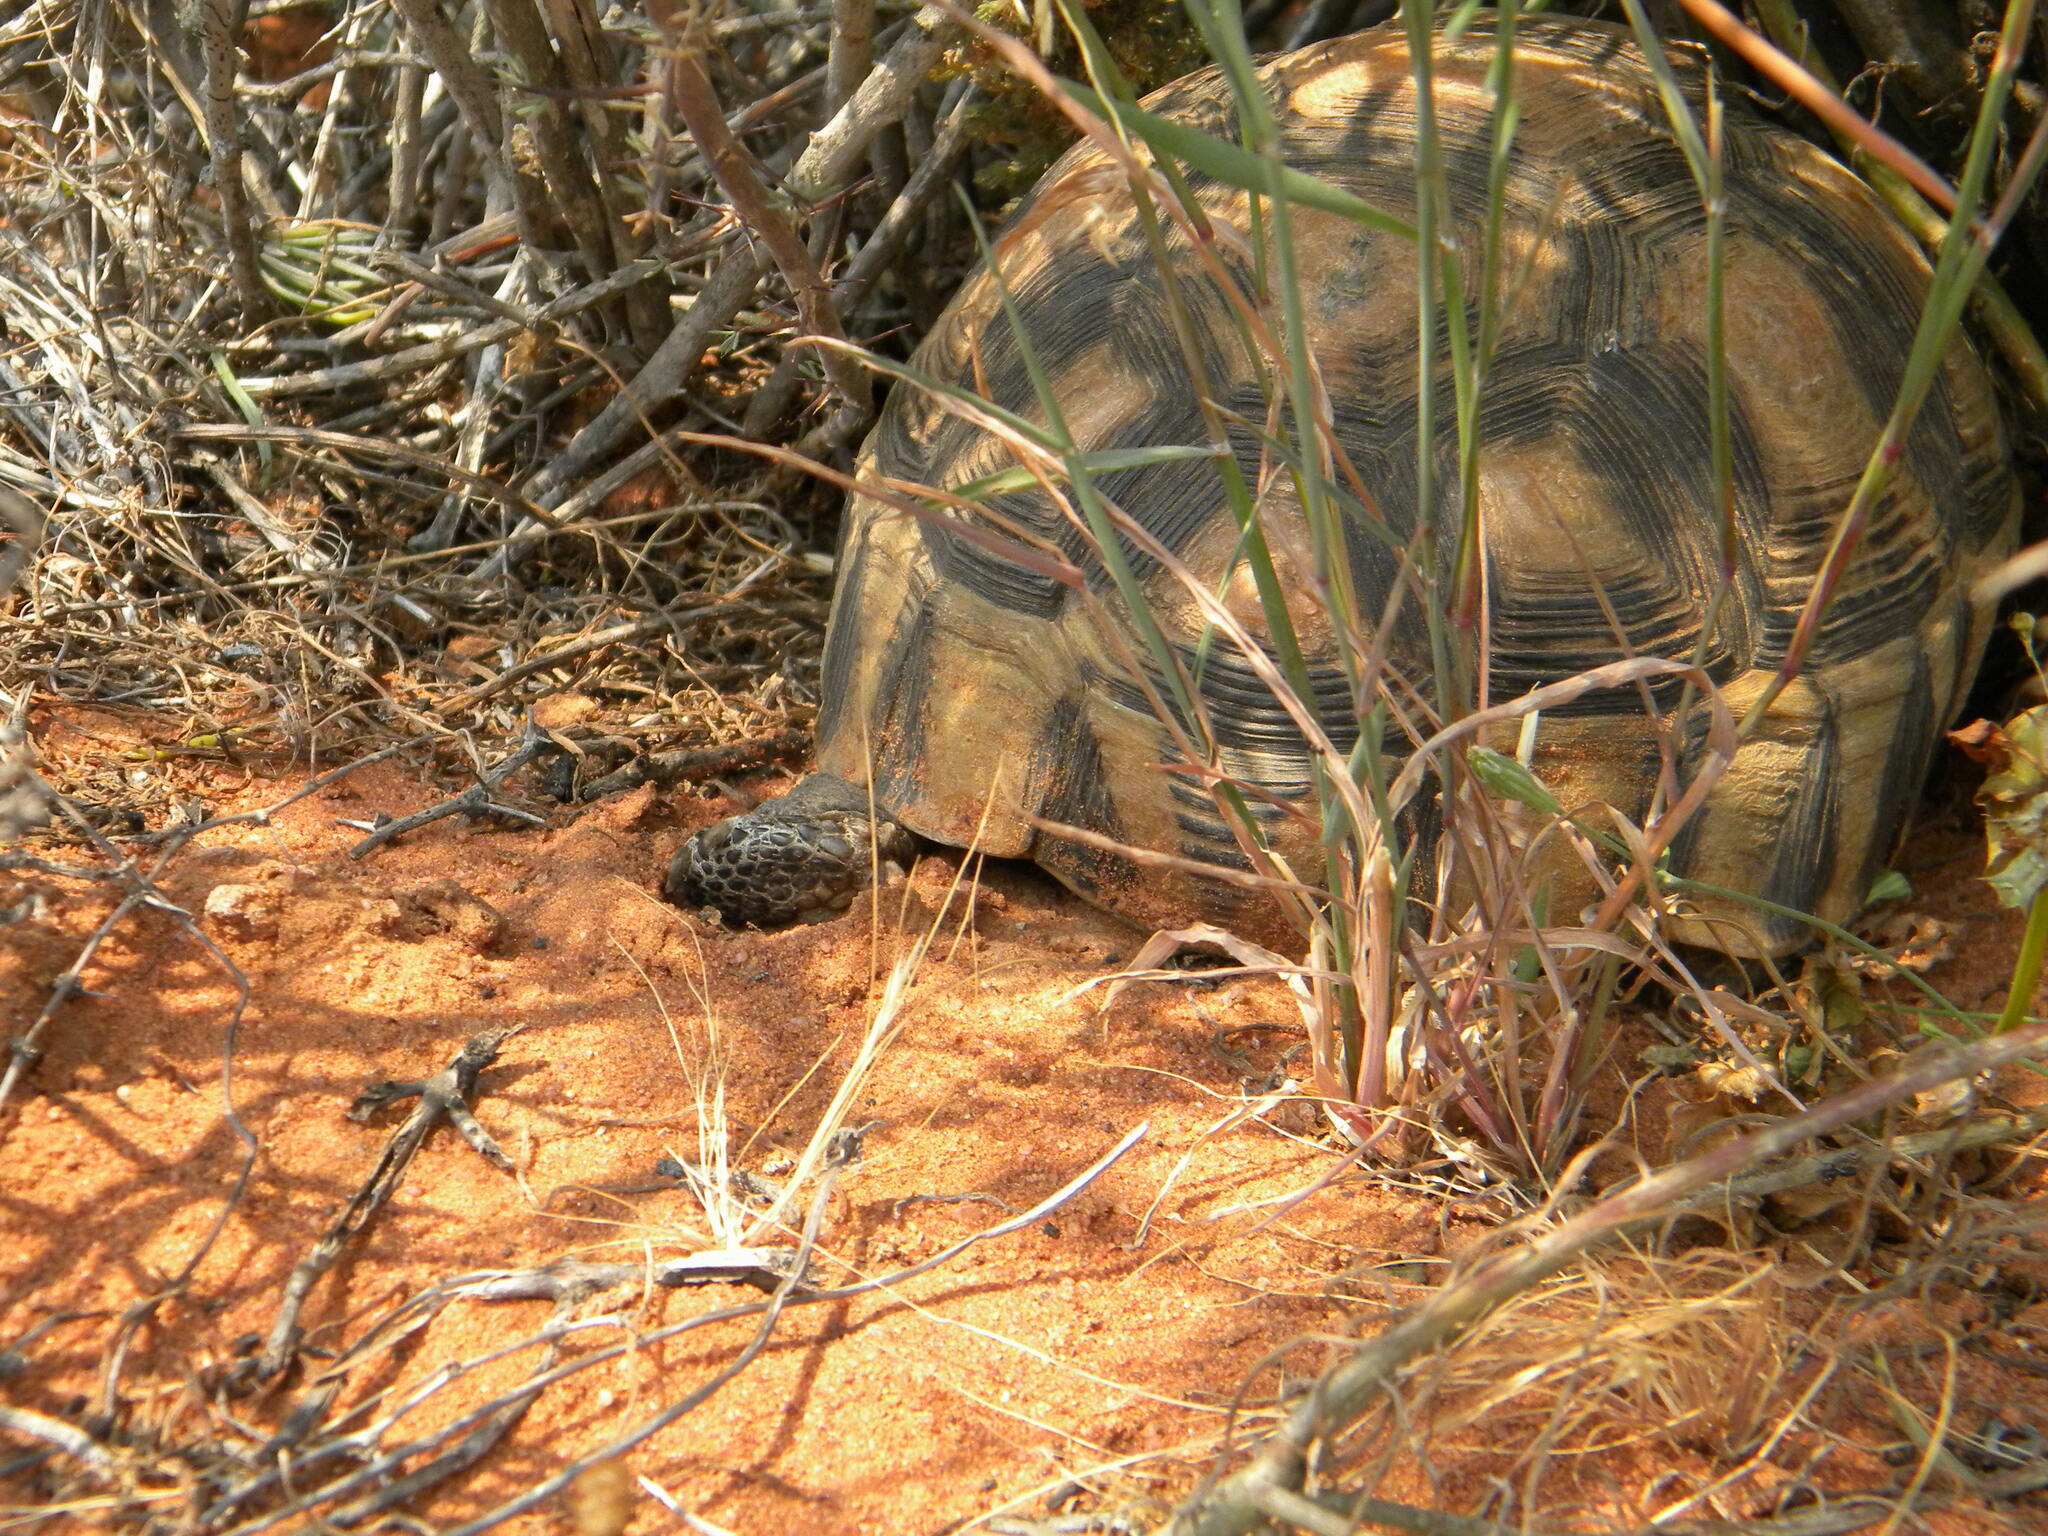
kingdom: Animalia
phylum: Chordata
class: Testudines
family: Testudinidae
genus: Chersina
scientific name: Chersina angulata
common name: South african bowsprit tortoise
